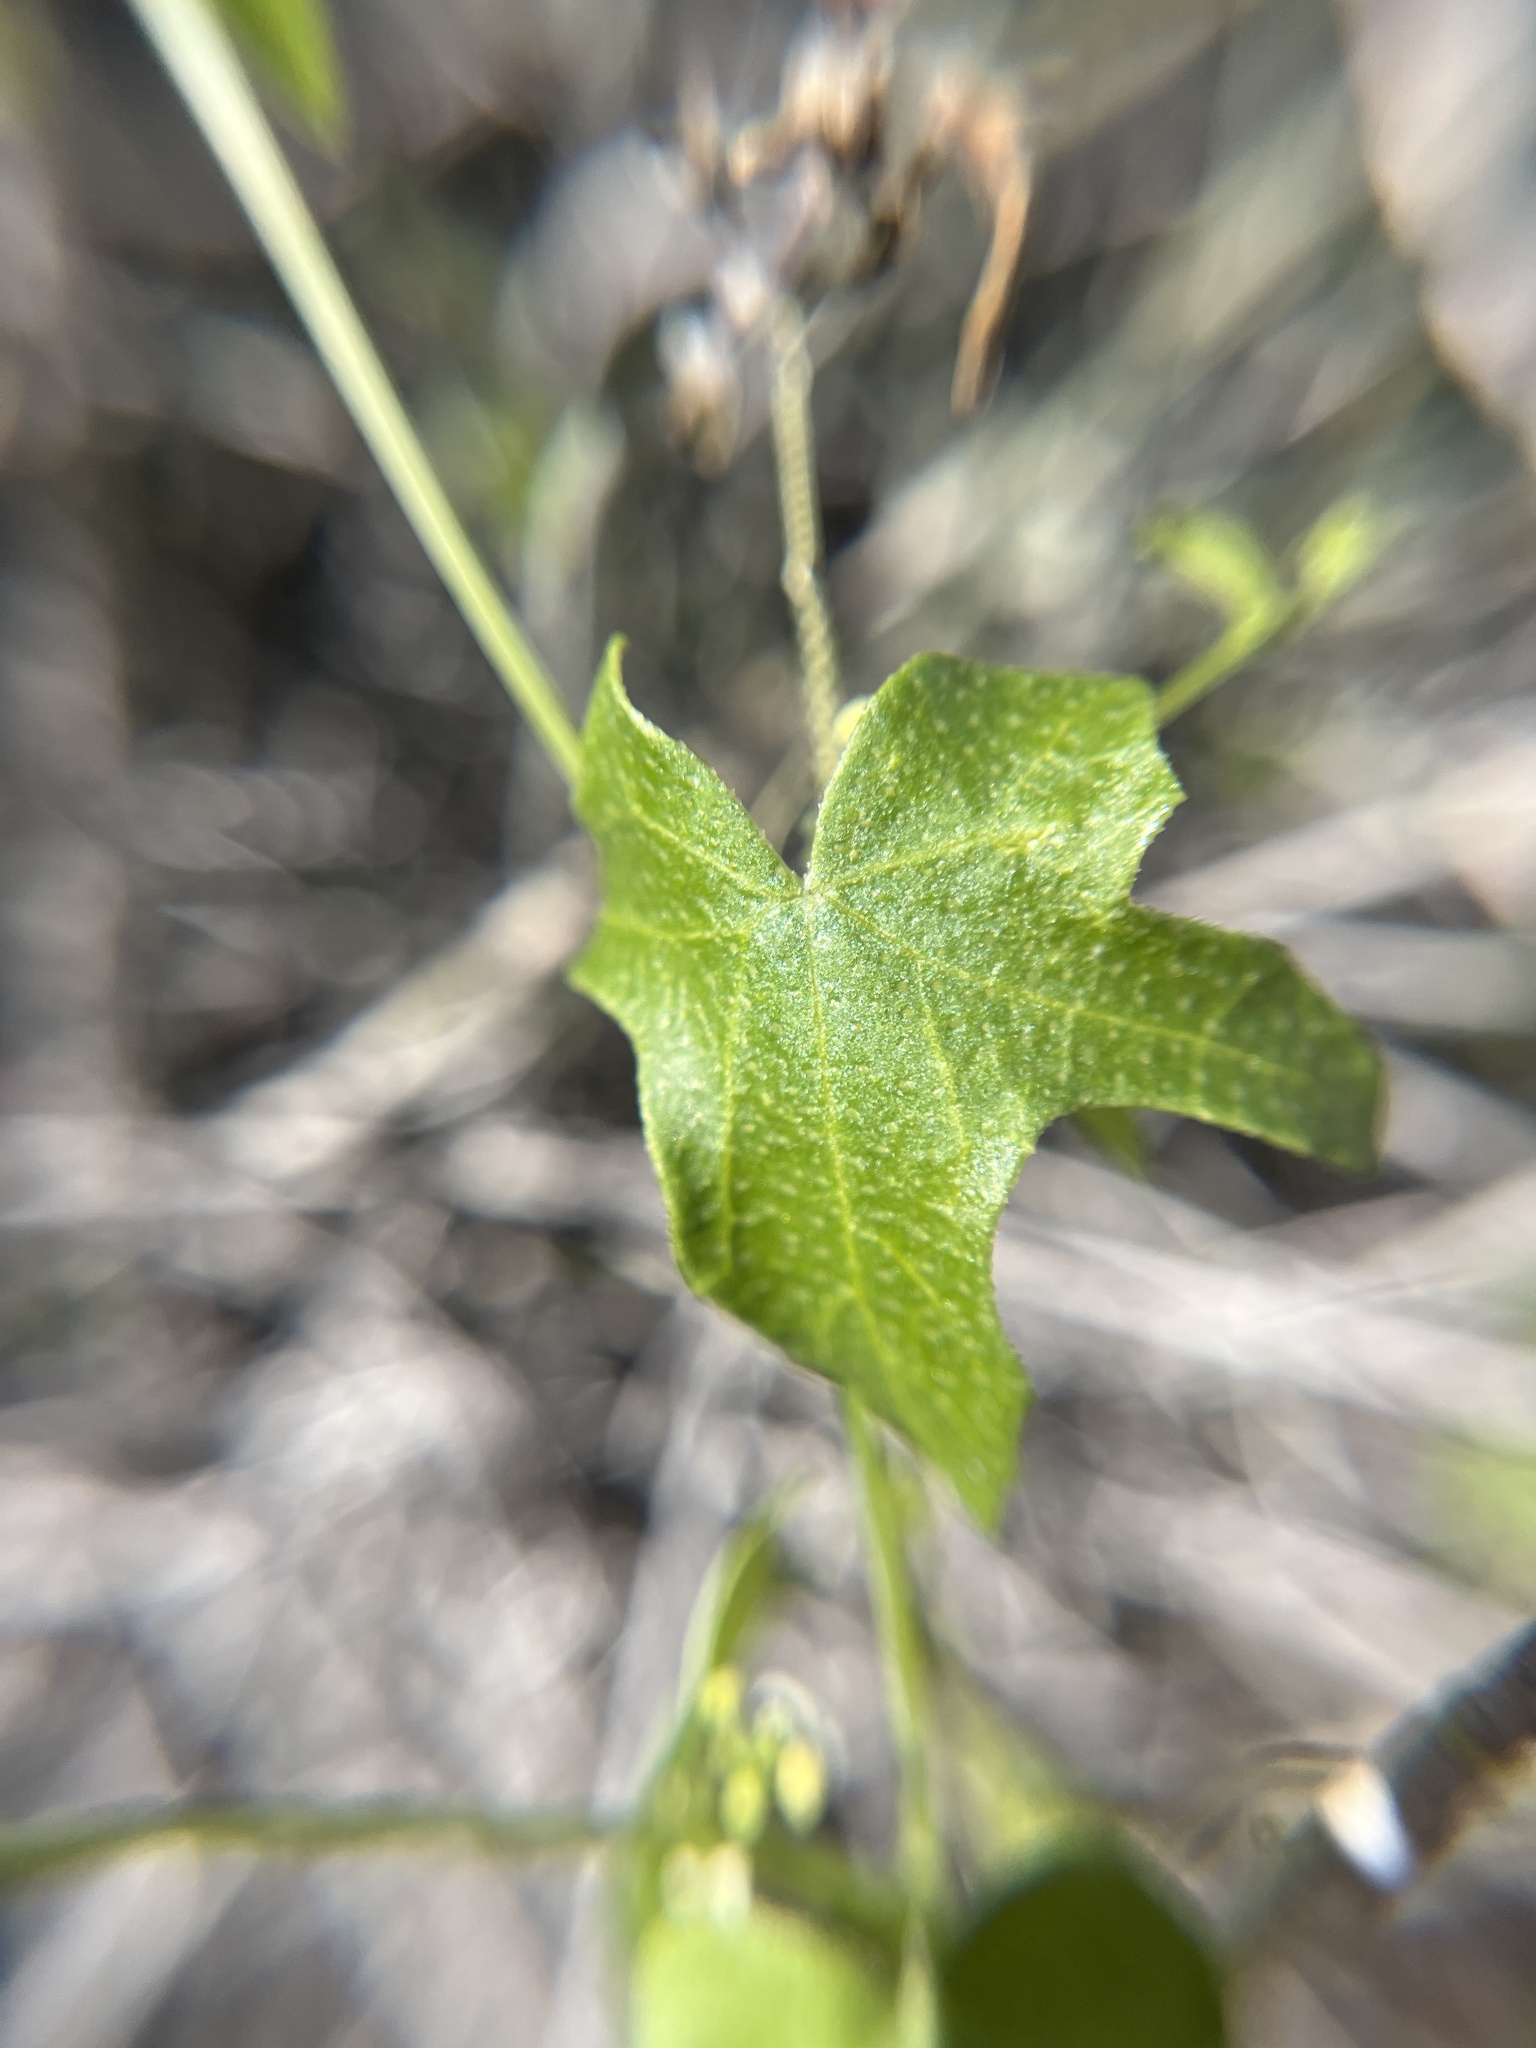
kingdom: Plantae
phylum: Tracheophyta
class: Magnoliopsida
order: Cucurbitales
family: Cucurbitaceae
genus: Echinopepon
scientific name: Echinopepon bigelovii
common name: Desert starvine
